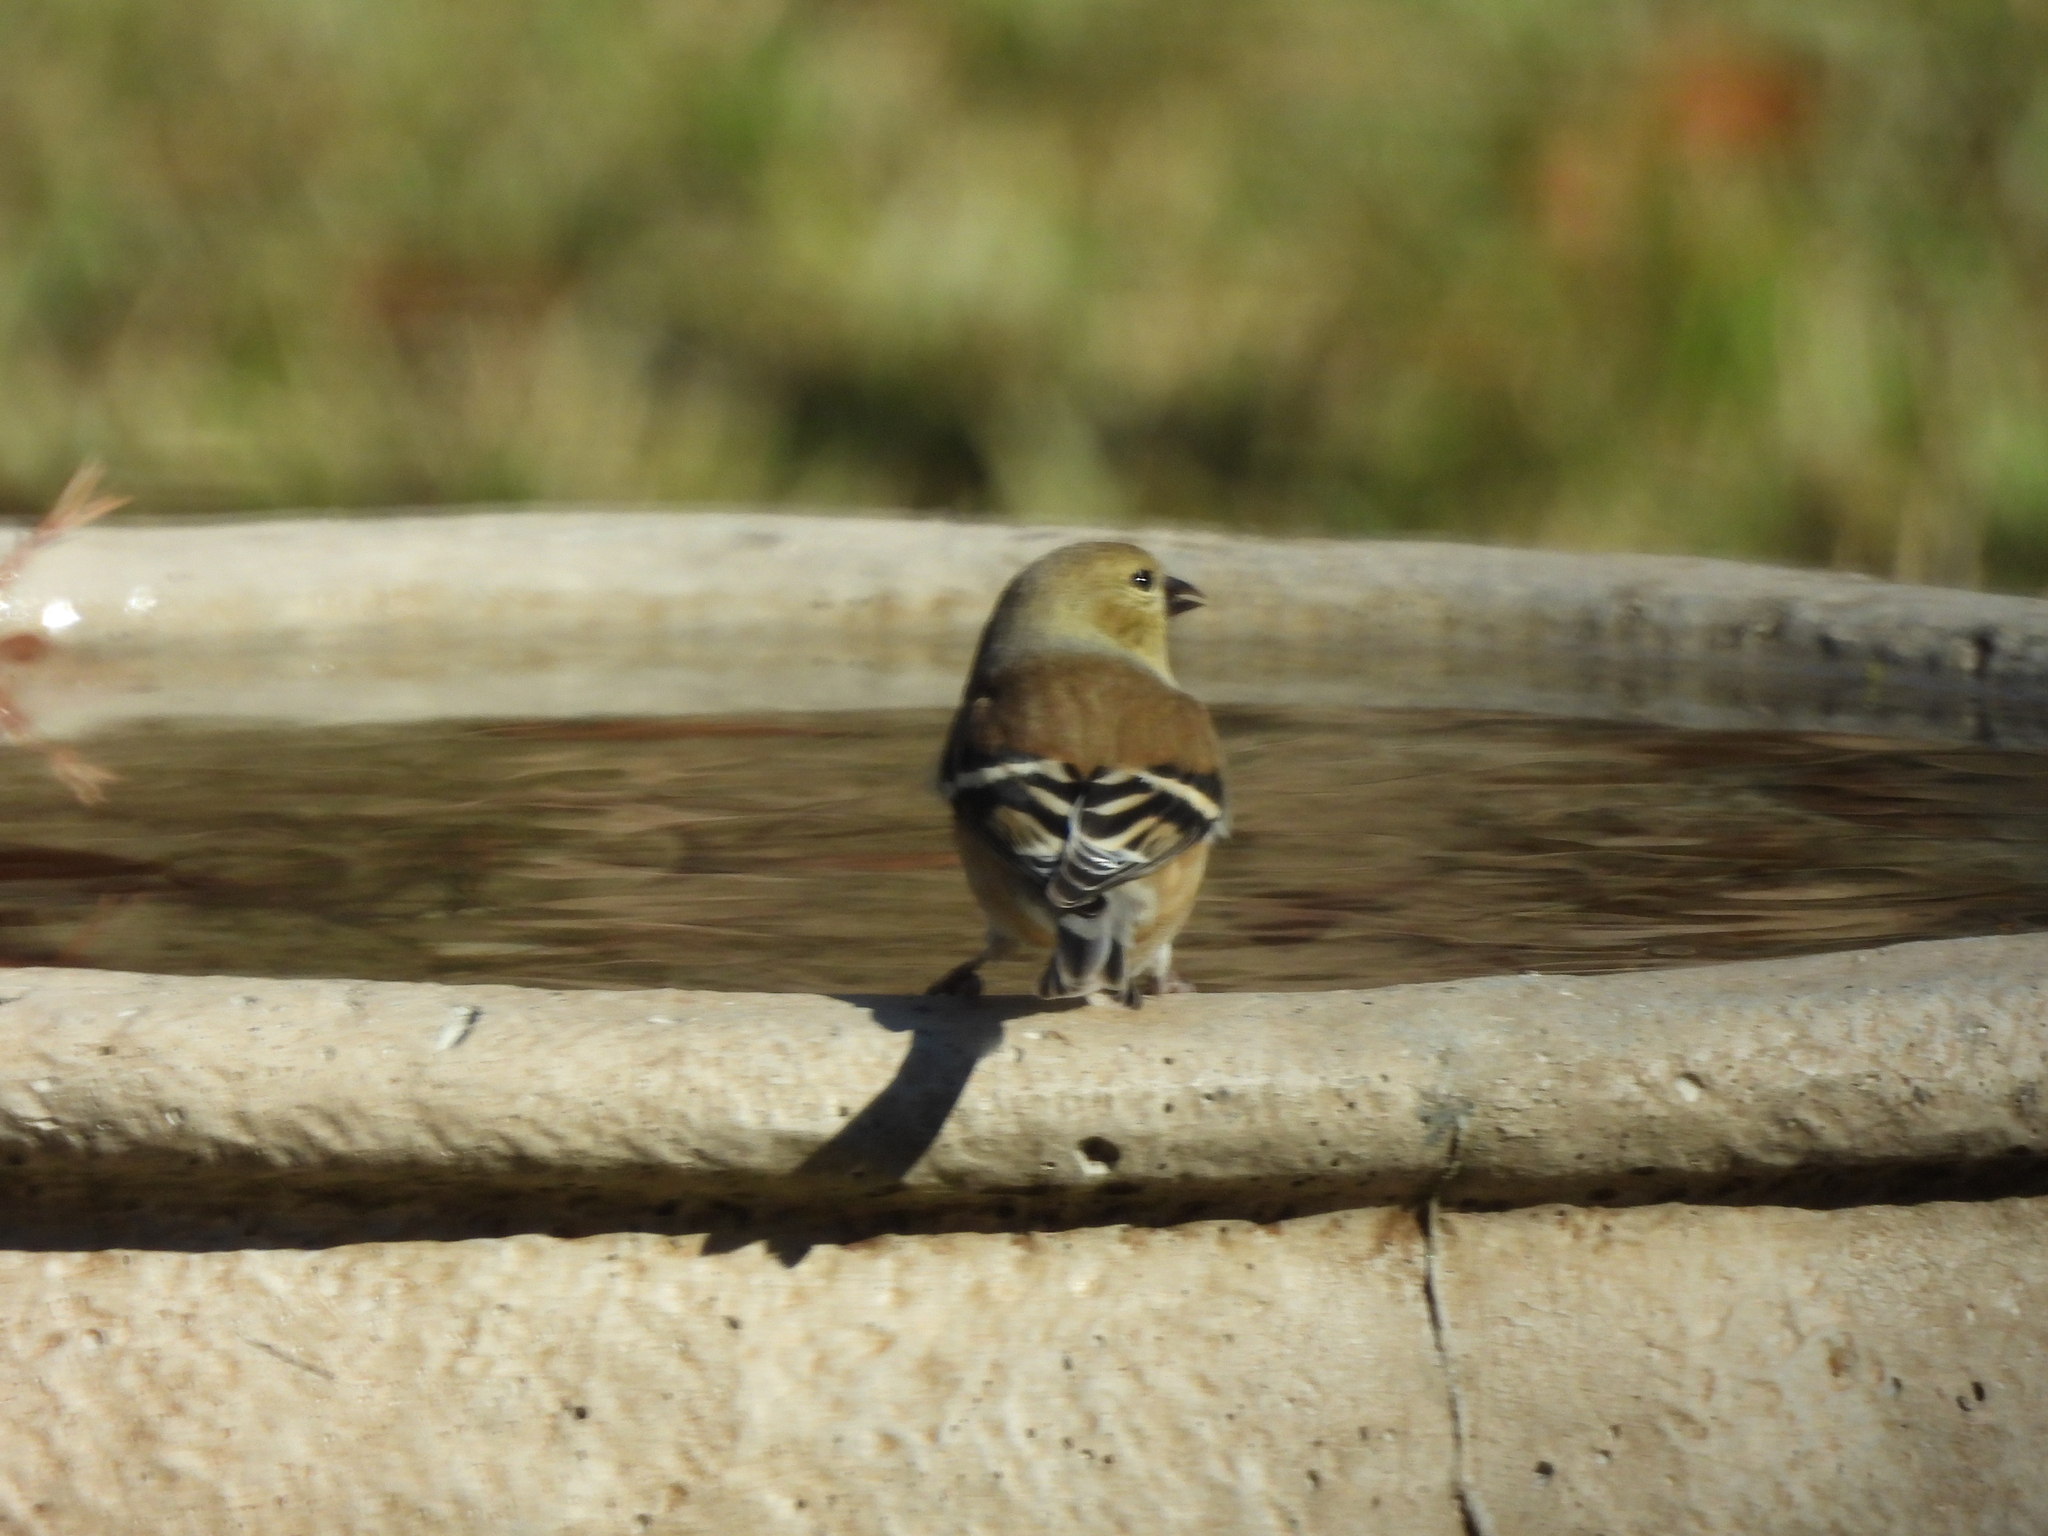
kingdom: Animalia
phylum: Chordata
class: Aves
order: Passeriformes
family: Fringillidae
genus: Spinus
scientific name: Spinus tristis
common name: American goldfinch
